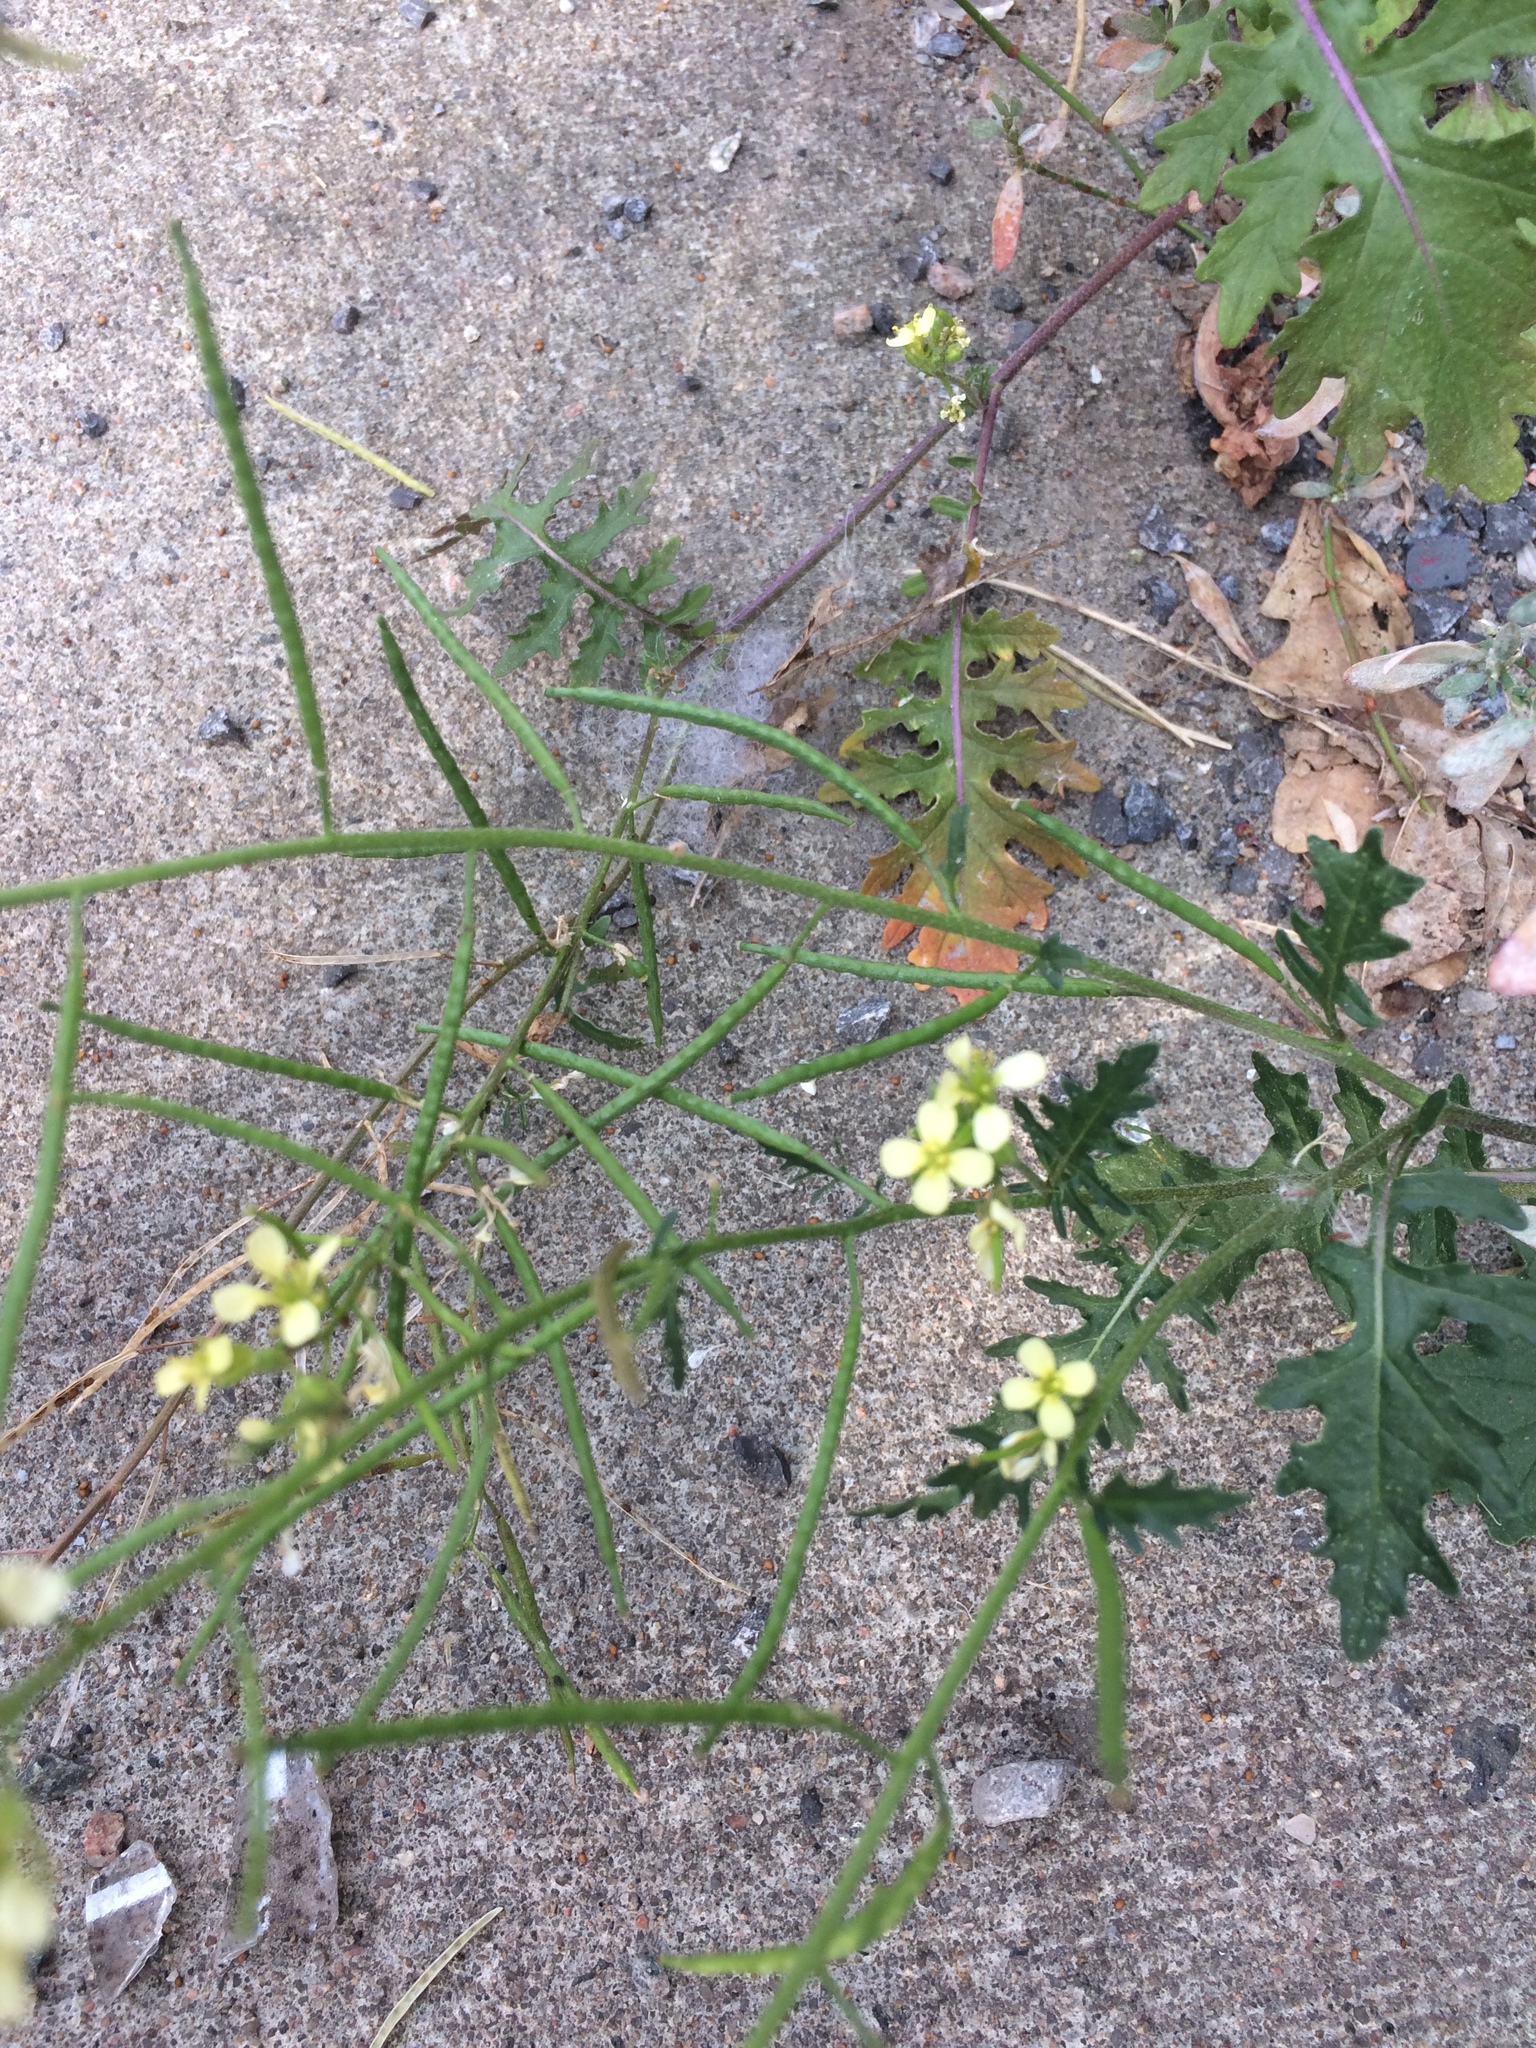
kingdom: Plantae
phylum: Tracheophyta
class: Magnoliopsida
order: Brassicales
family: Brassicaceae
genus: Erucastrum
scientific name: Erucastrum gallicum
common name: Hairy rocket
